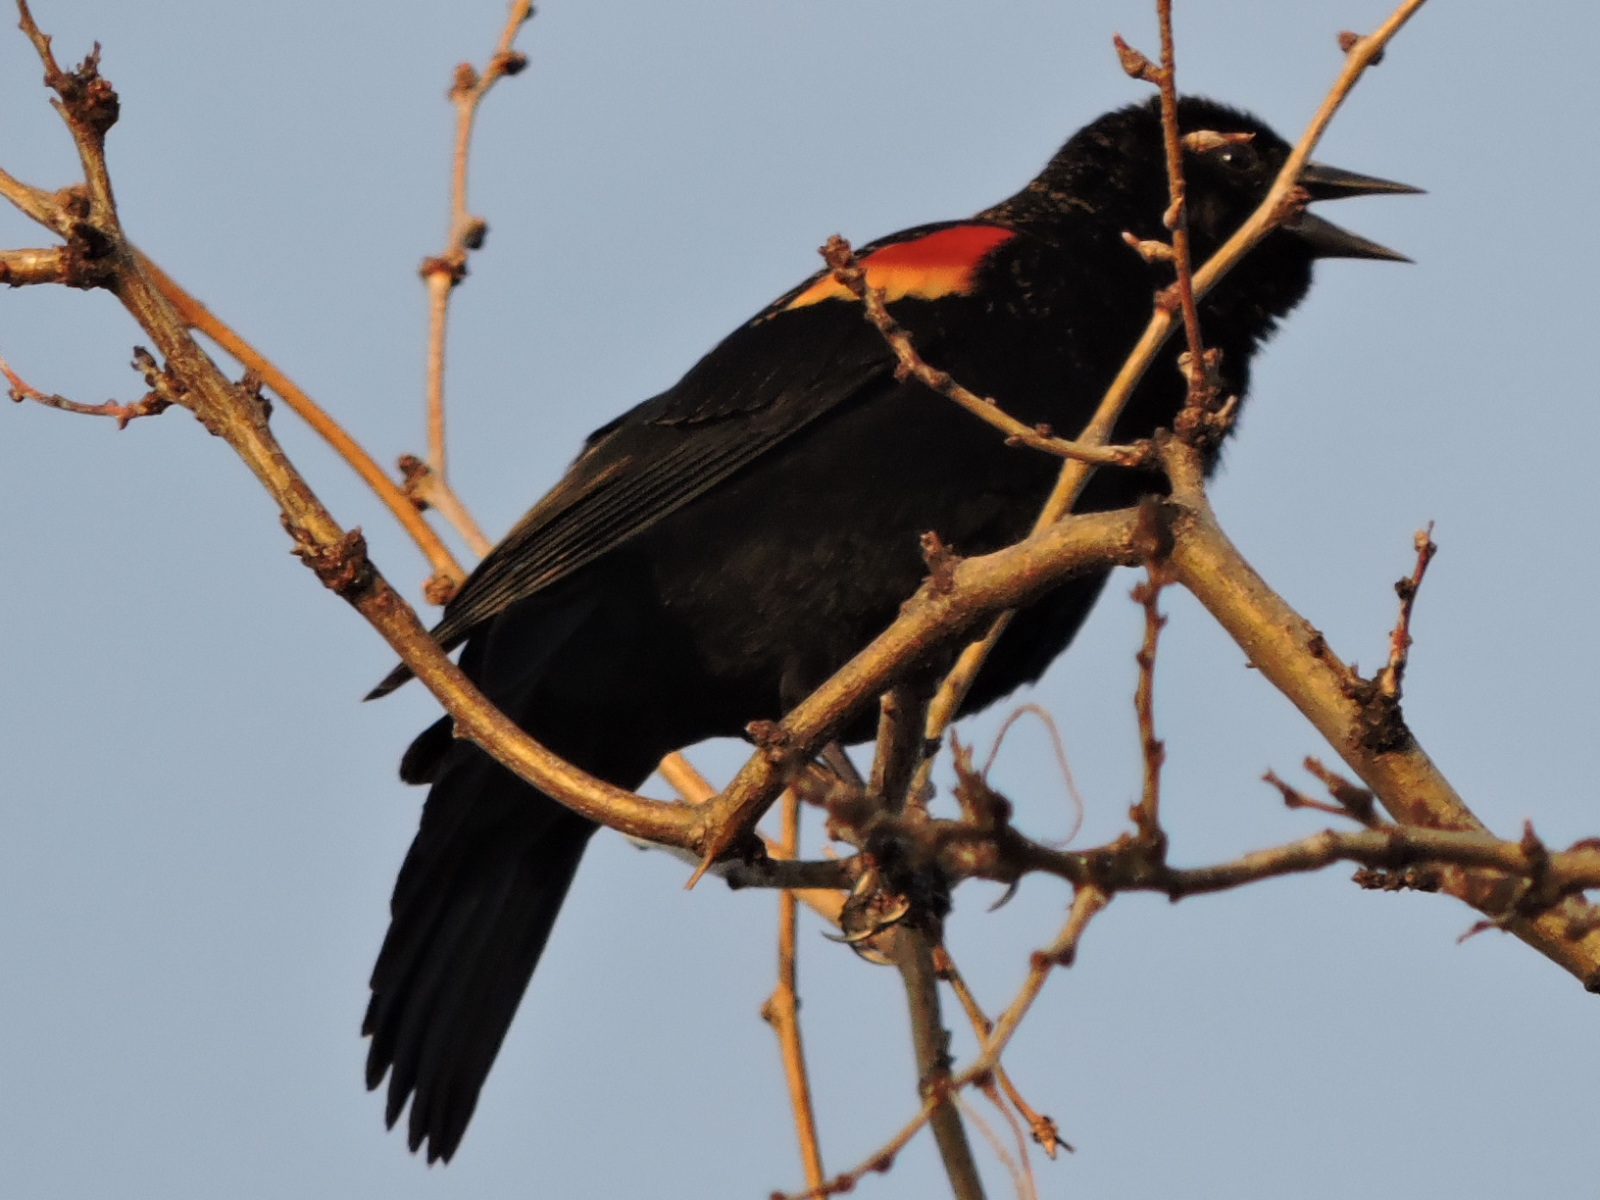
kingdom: Animalia
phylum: Chordata
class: Aves
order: Passeriformes
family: Icteridae
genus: Agelaius
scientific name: Agelaius phoeniceus
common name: Red-winged blackbird
